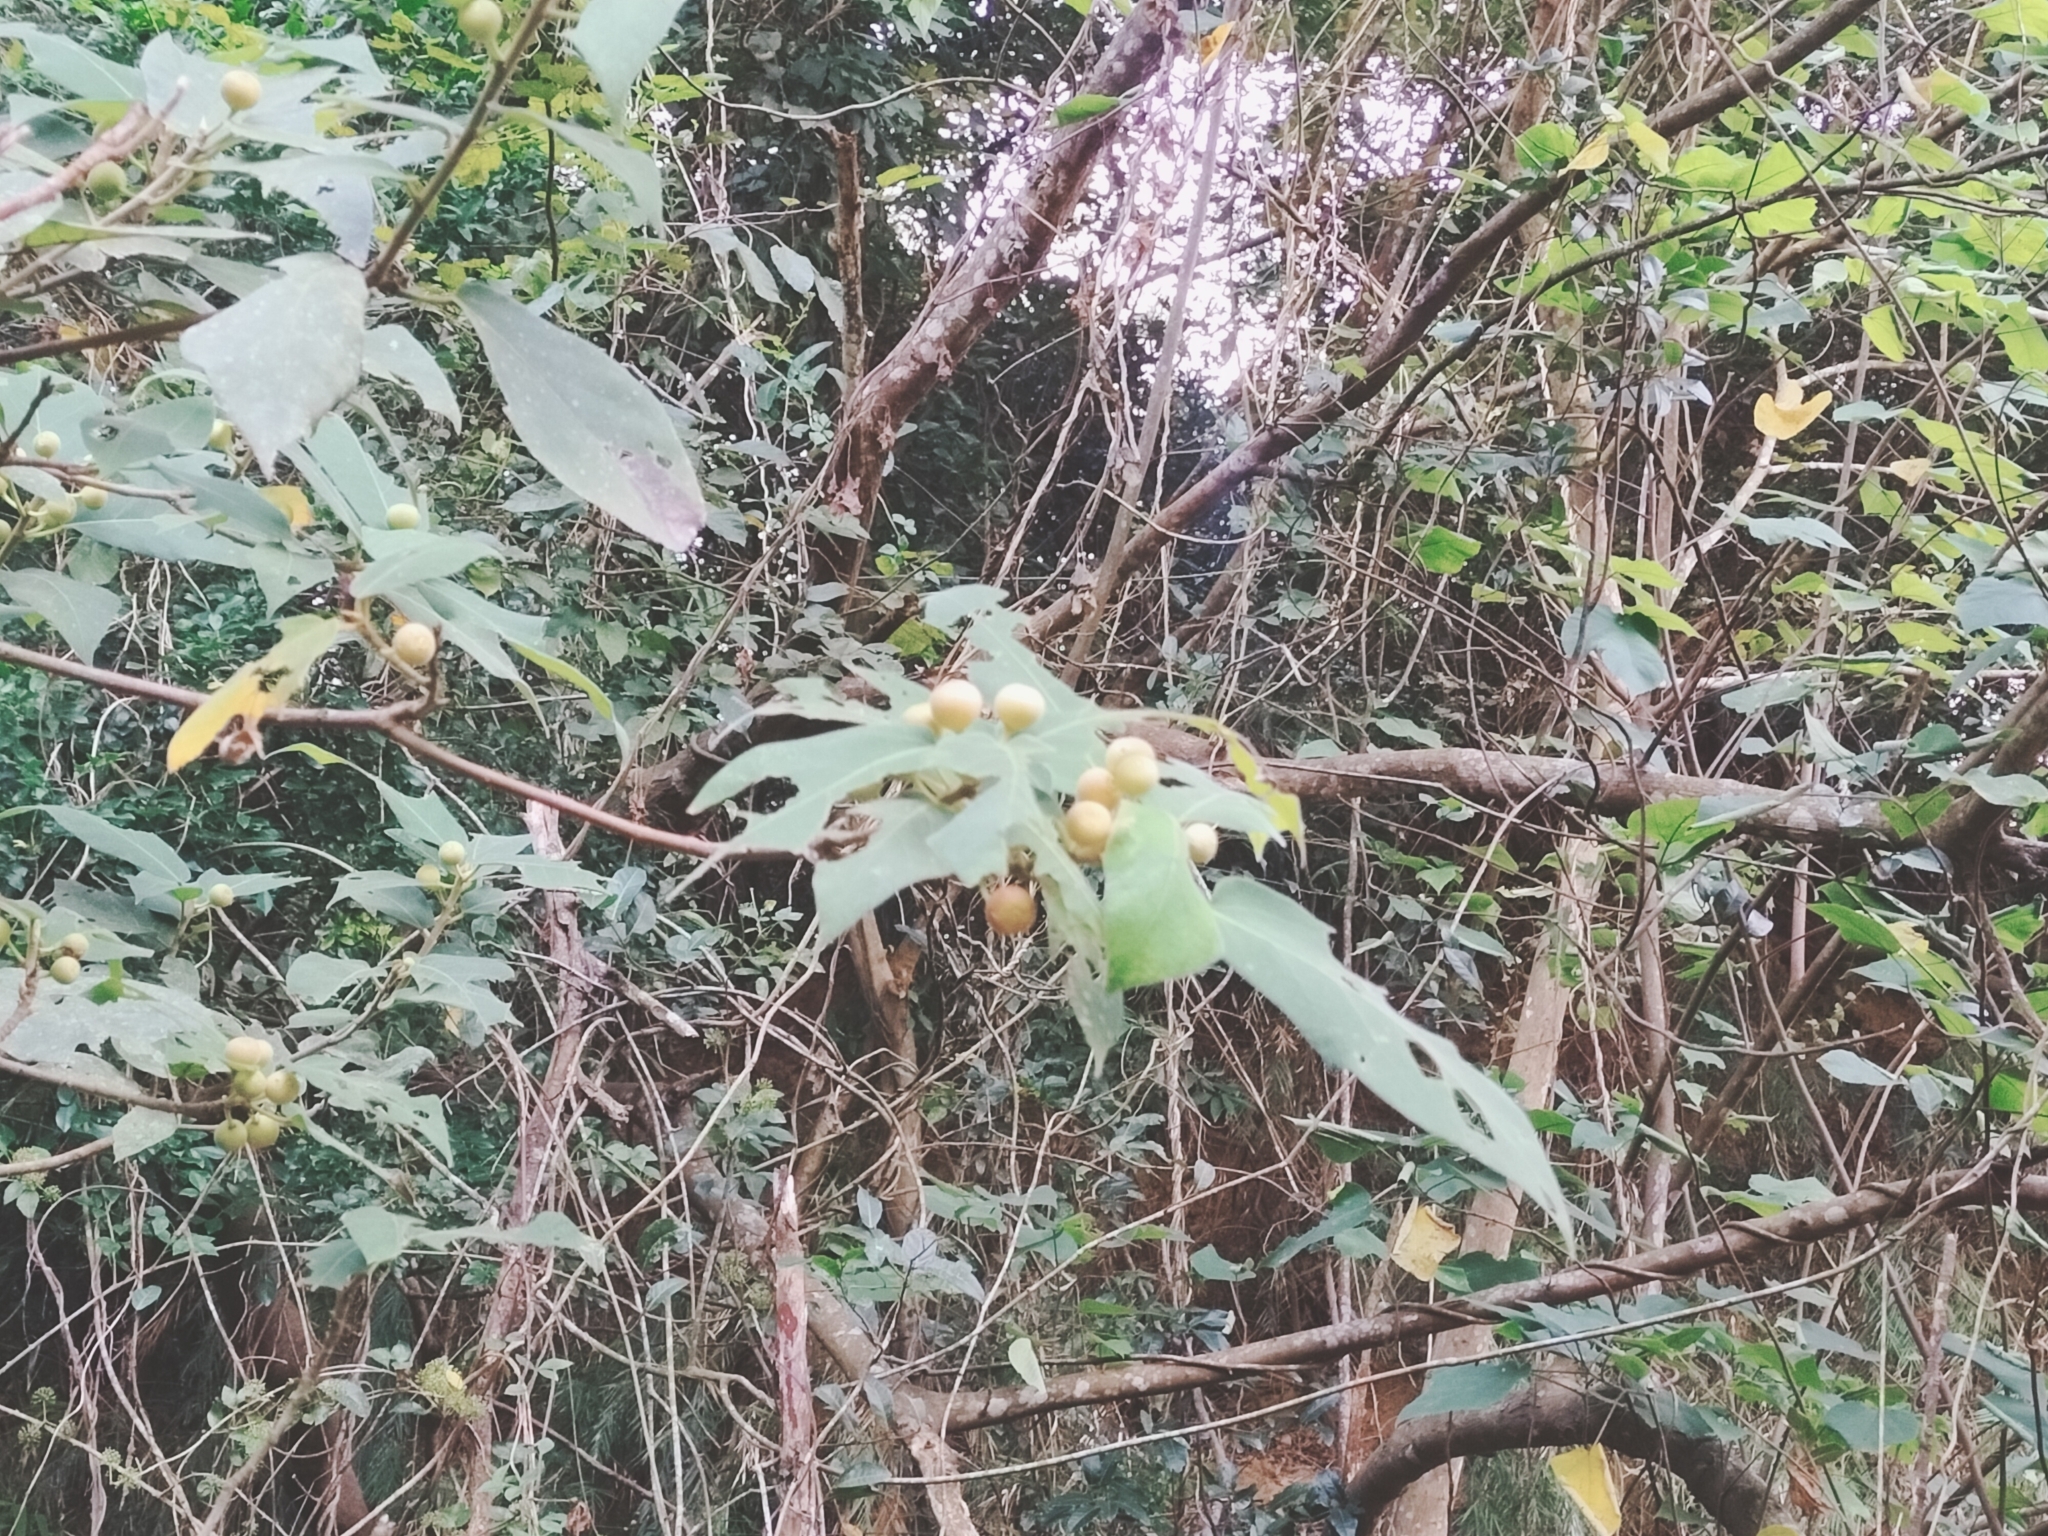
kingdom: Plantae
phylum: Tracheophyta
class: Magnoliopsida
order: Rosales
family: Moraceae
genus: Ficus
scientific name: Ficus erecta
